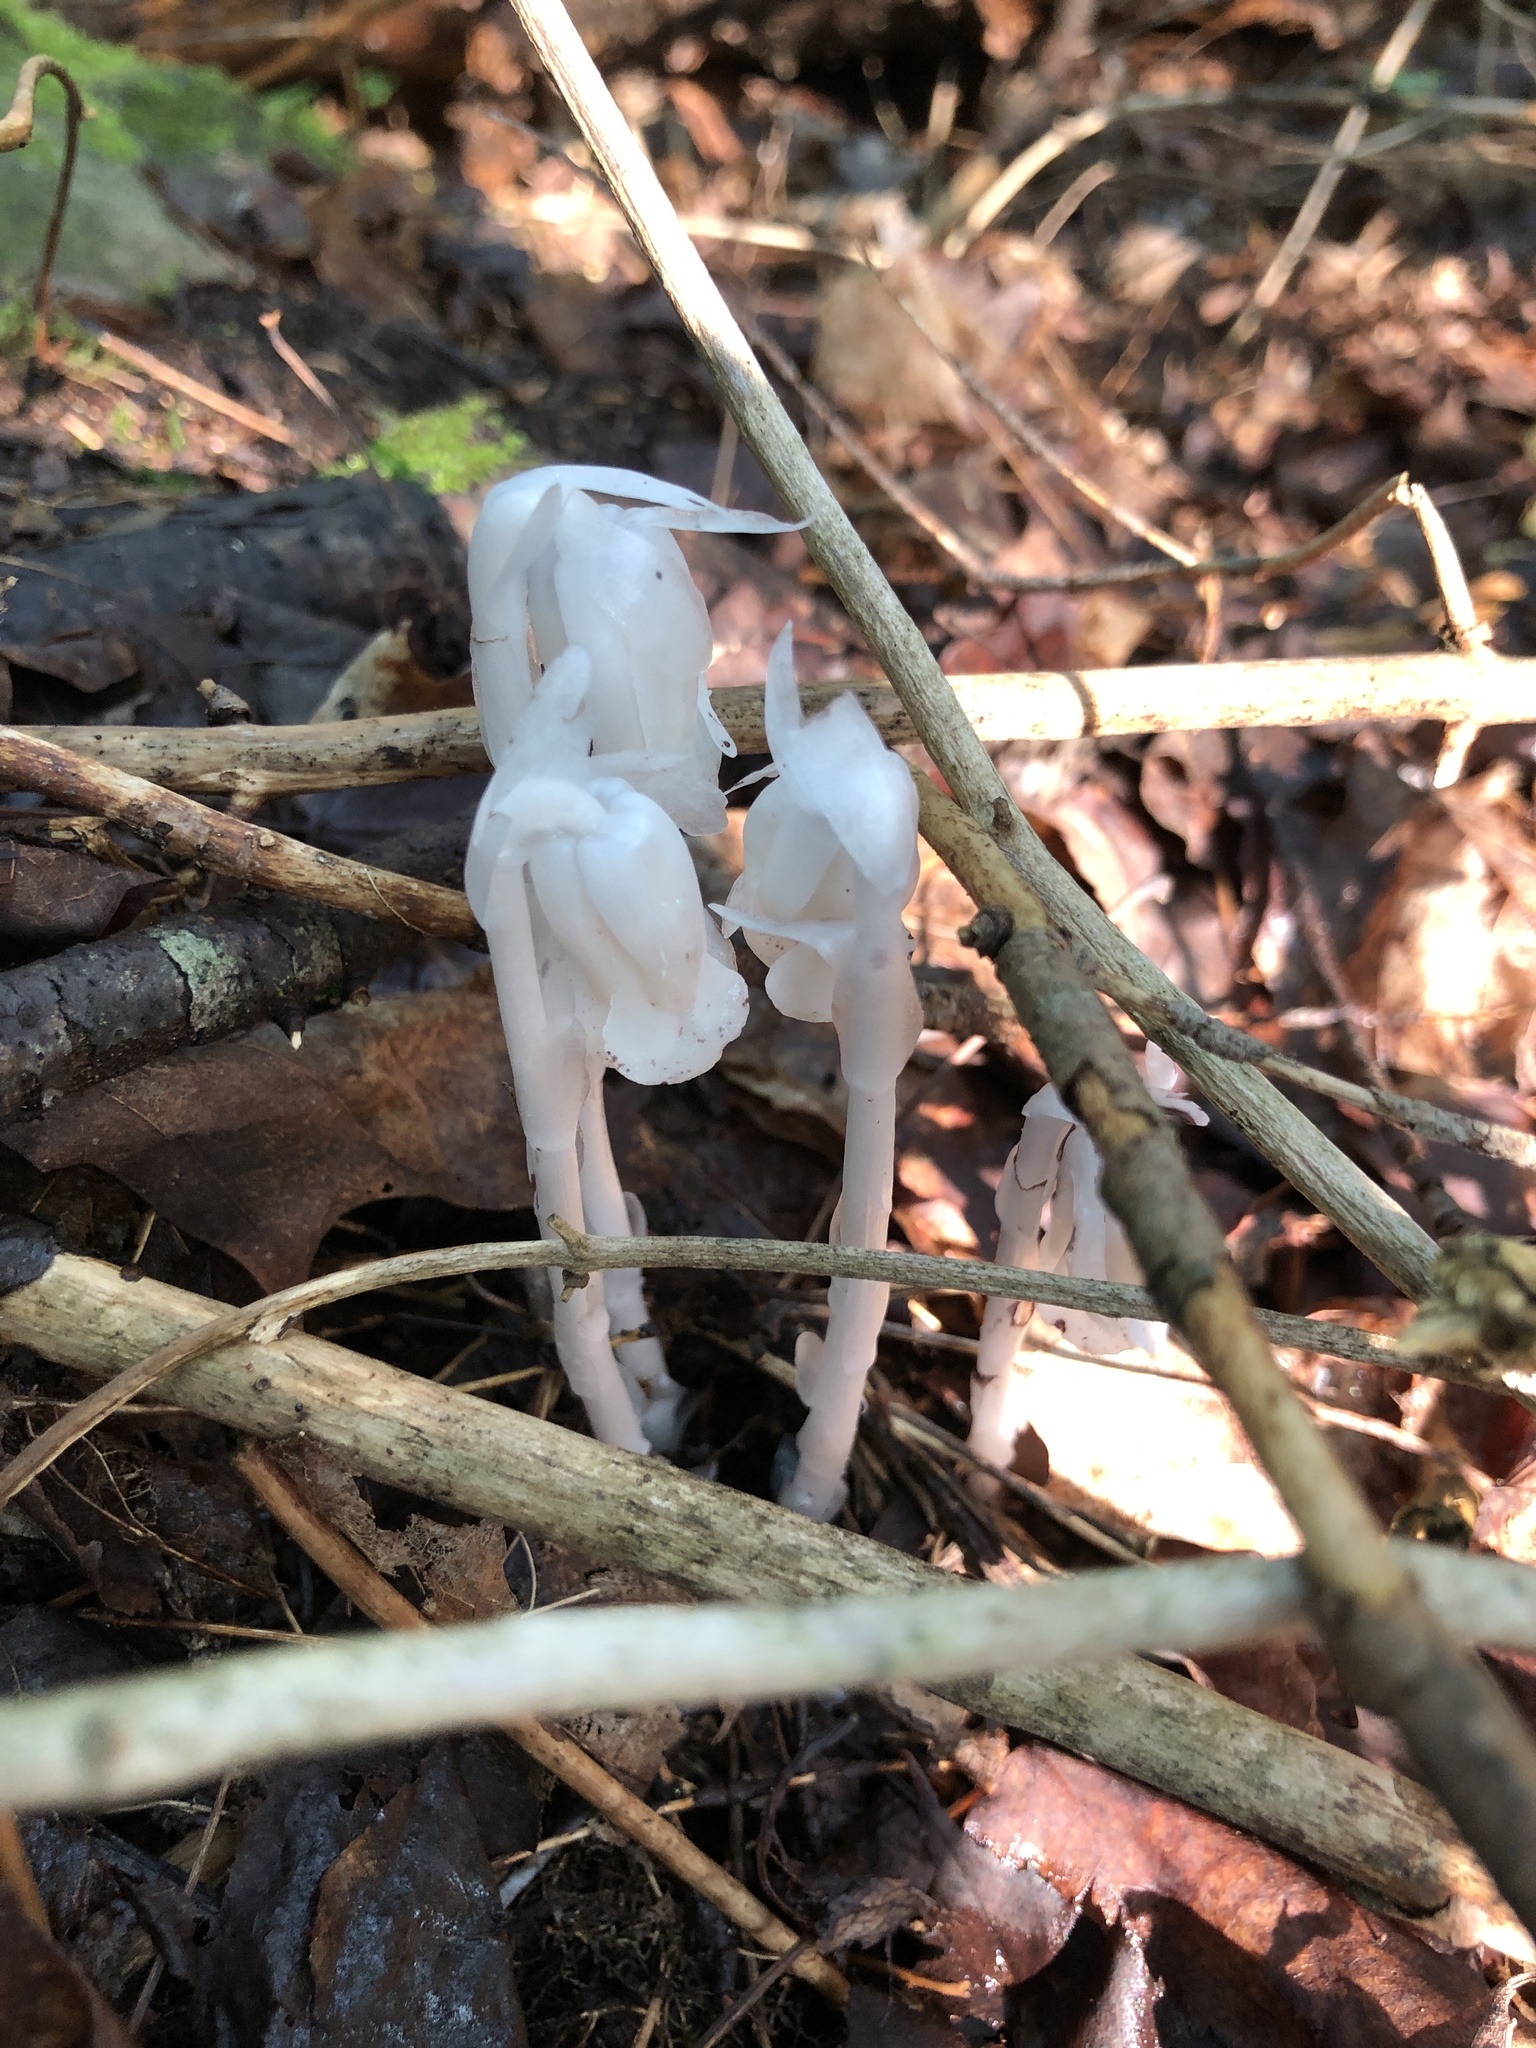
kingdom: Plantae
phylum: Tracheophyta
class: Magnoliopsida
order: Ericales
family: Ericaceae
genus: Monotropa
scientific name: Monotropa uniflora
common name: Convulsion root
